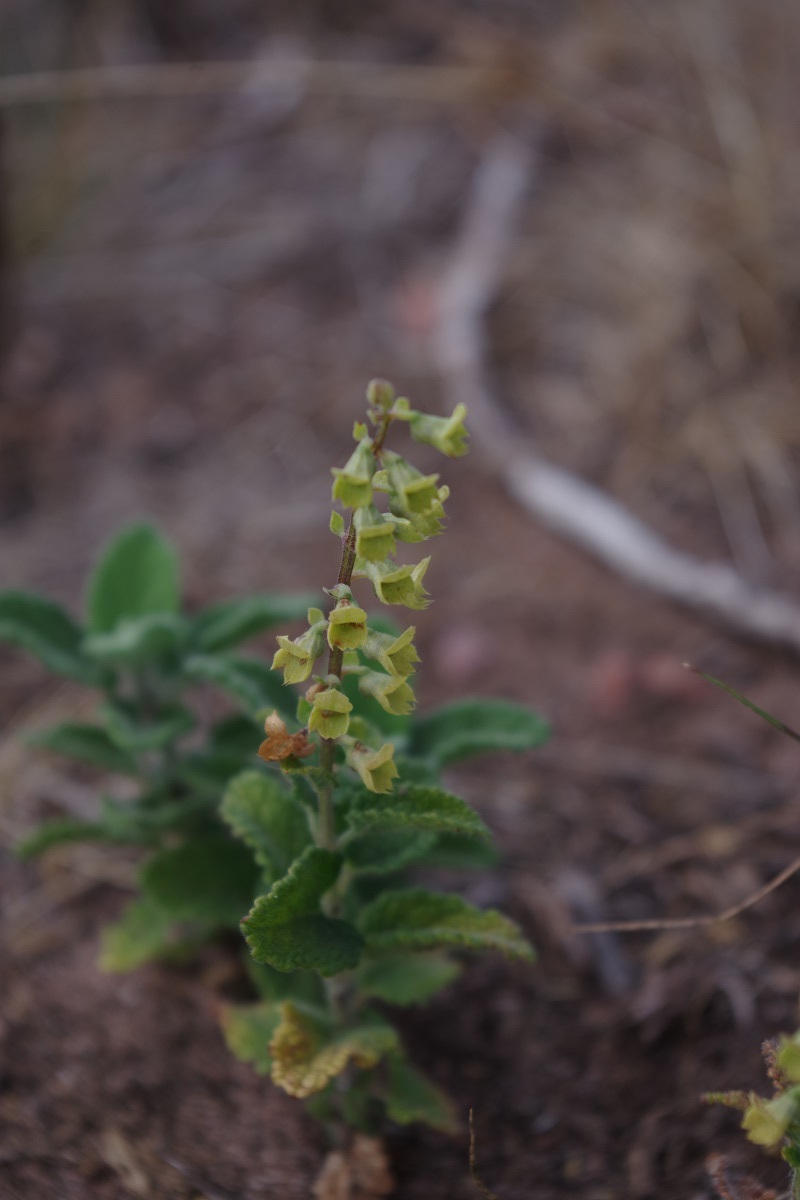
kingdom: Plantae
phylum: Tracheophyta
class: Magnoliopsida
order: Lamiales
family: Lamiaceae
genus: Teucrium
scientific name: Teucrium scorodonia
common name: Woodland germander
